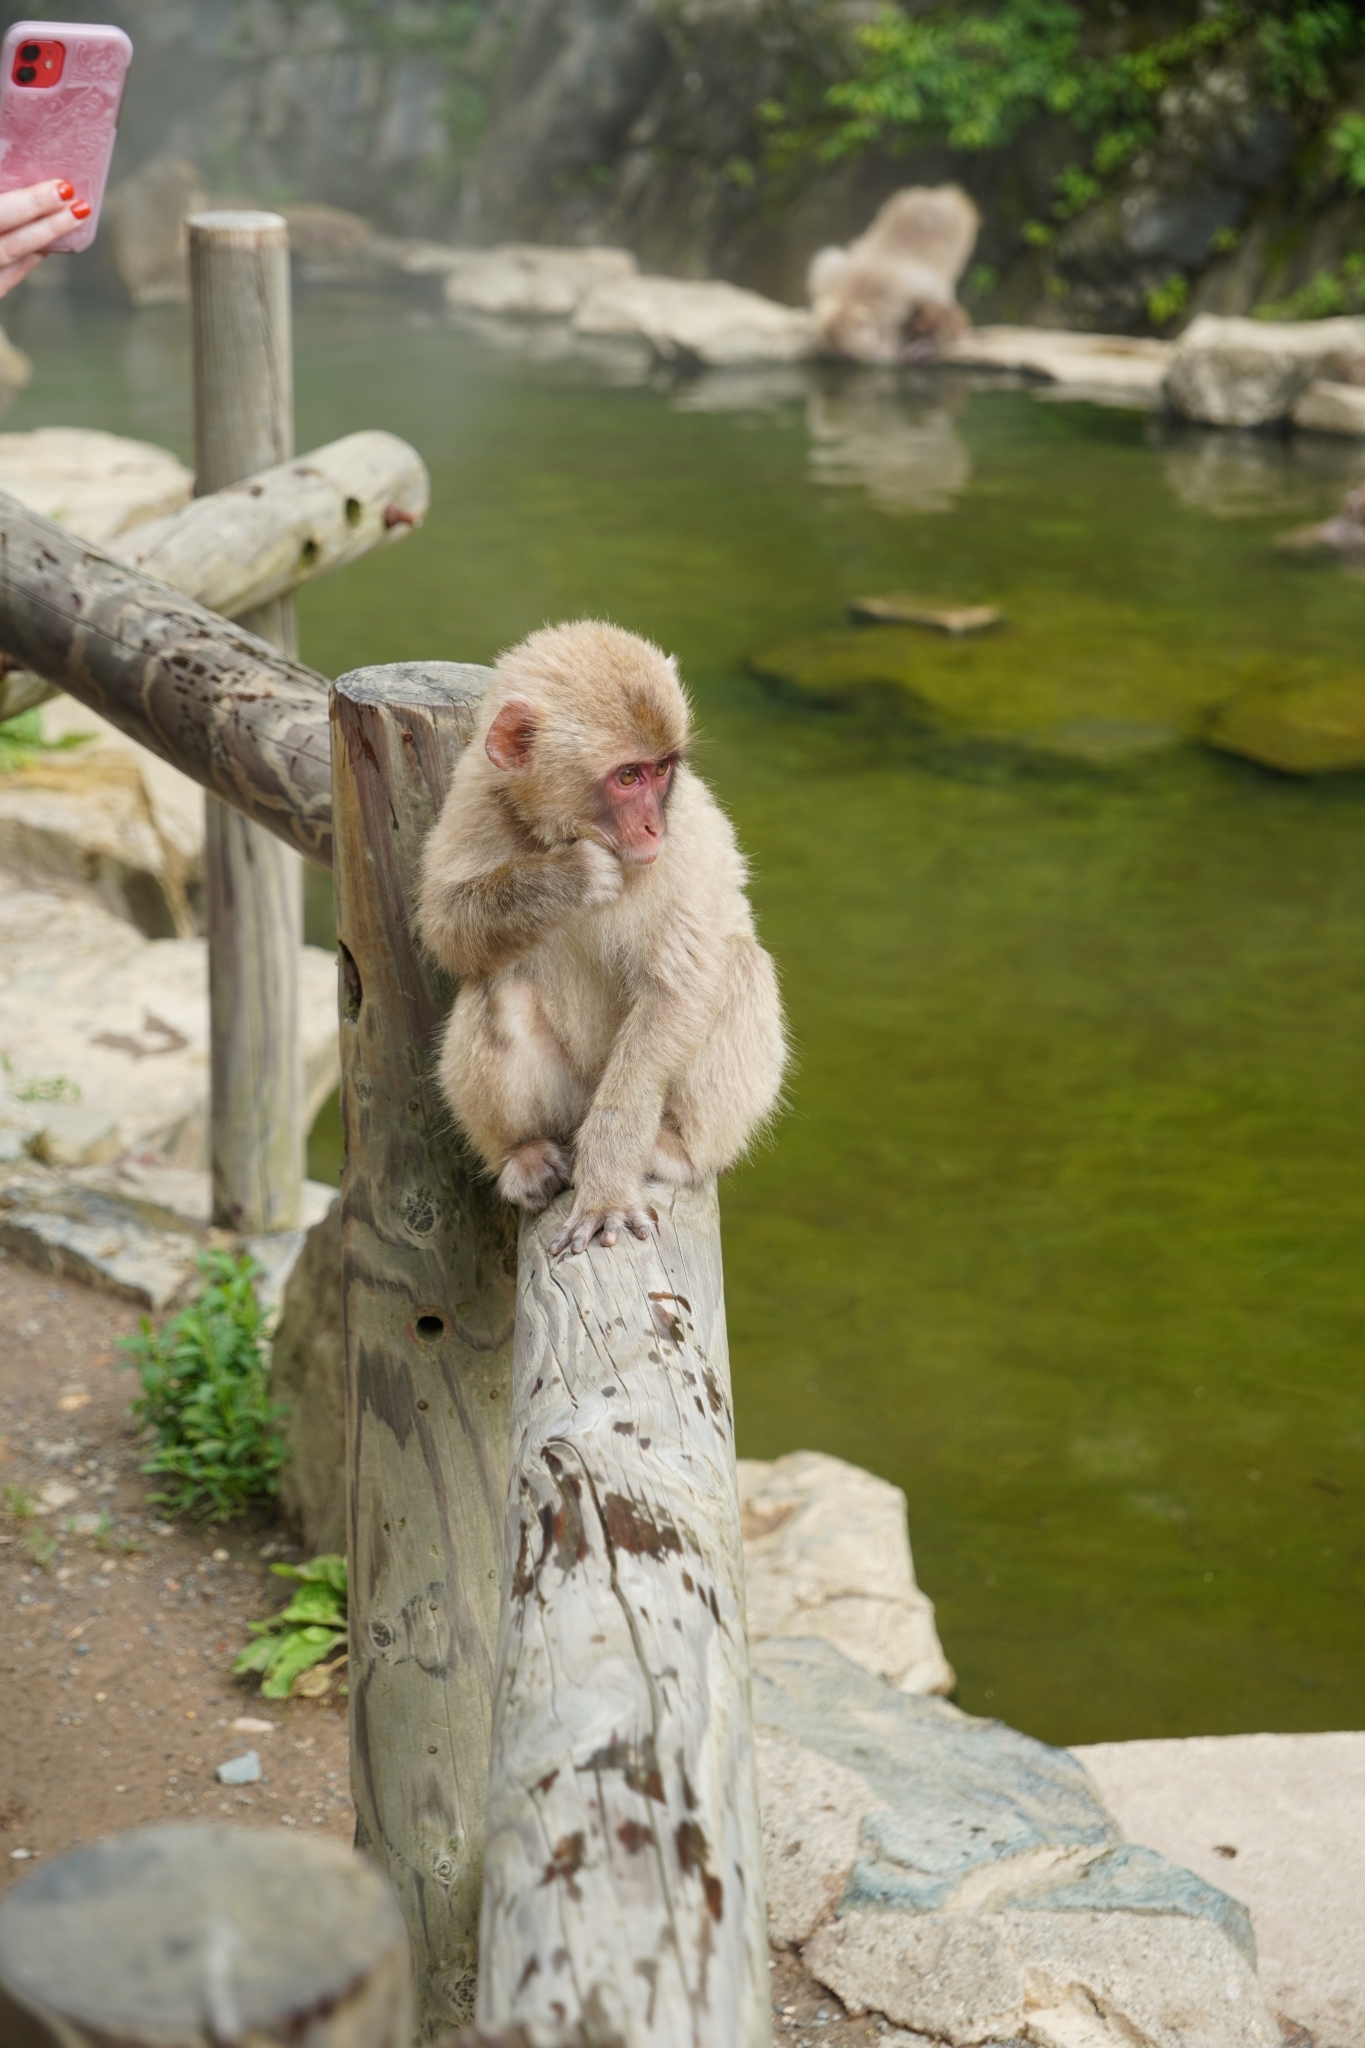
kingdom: Animalia
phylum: Chordata
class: Mammalia
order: Primates
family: Cercopithecidae
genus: Macaca
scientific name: Macaca fuscata
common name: Japanese macaque
